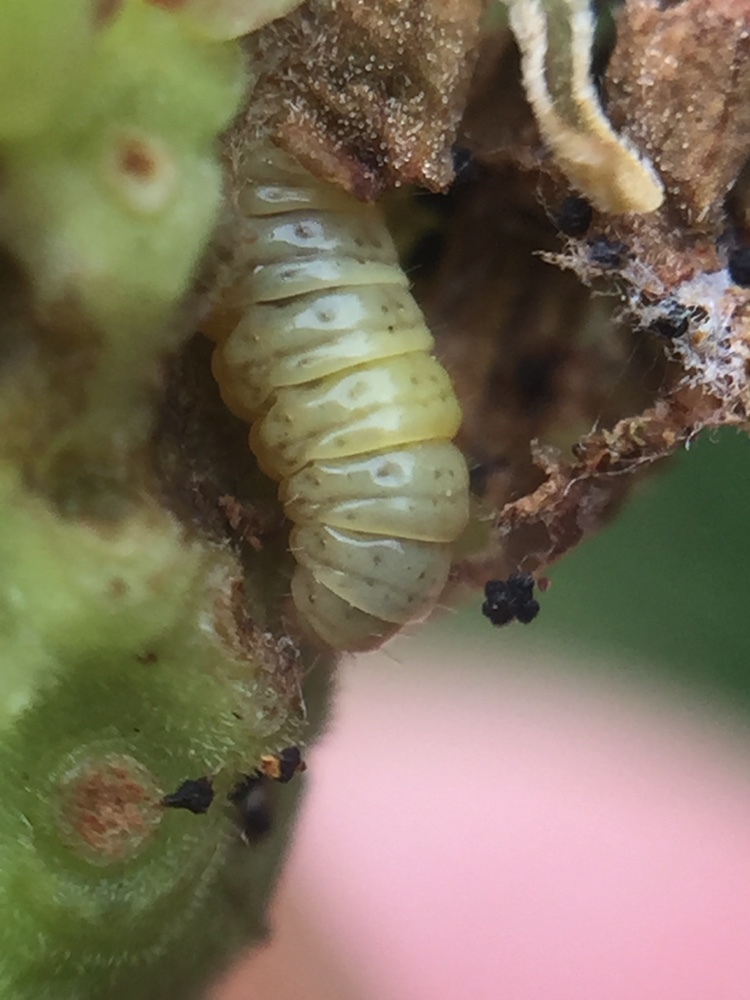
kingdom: Animalia
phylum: Arthropoda
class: Insecta
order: Lepidoptera
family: Pterophoridae
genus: Lantanophaga
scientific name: Lantanophaga pusillidactylus
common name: Moth
